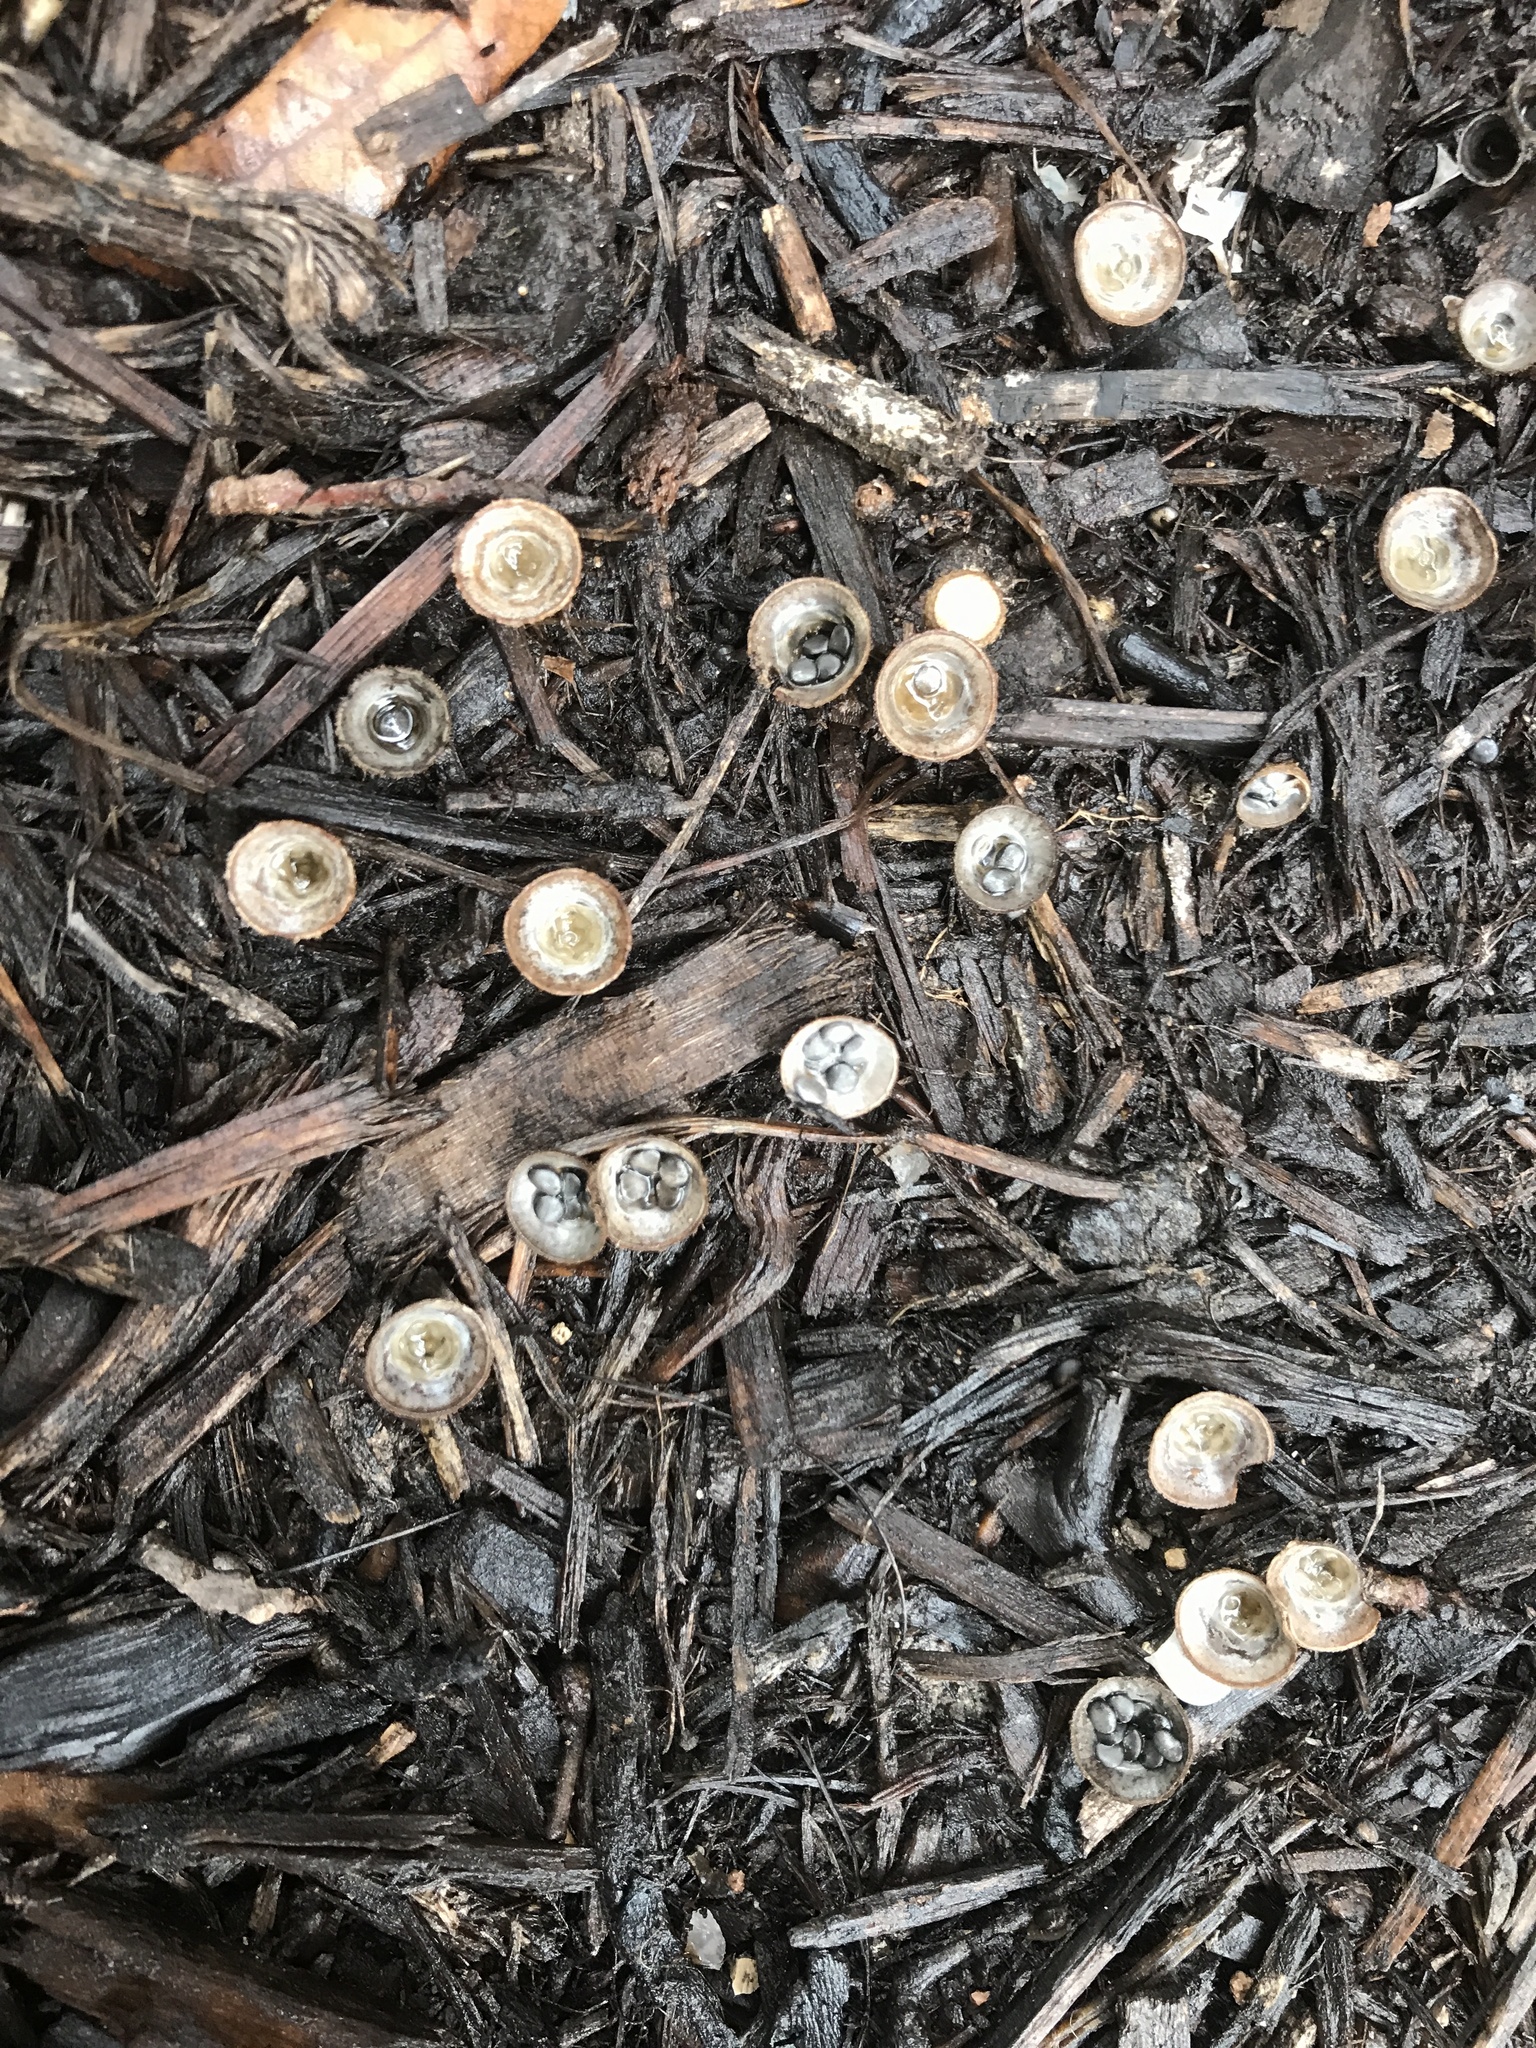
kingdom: Fungi
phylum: Basidiomycota
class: Agaricomycetes
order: Agaricales
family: Agaricaceae
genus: Cyathus
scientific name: Cyathus stercoreus
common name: Dung bird's nest
